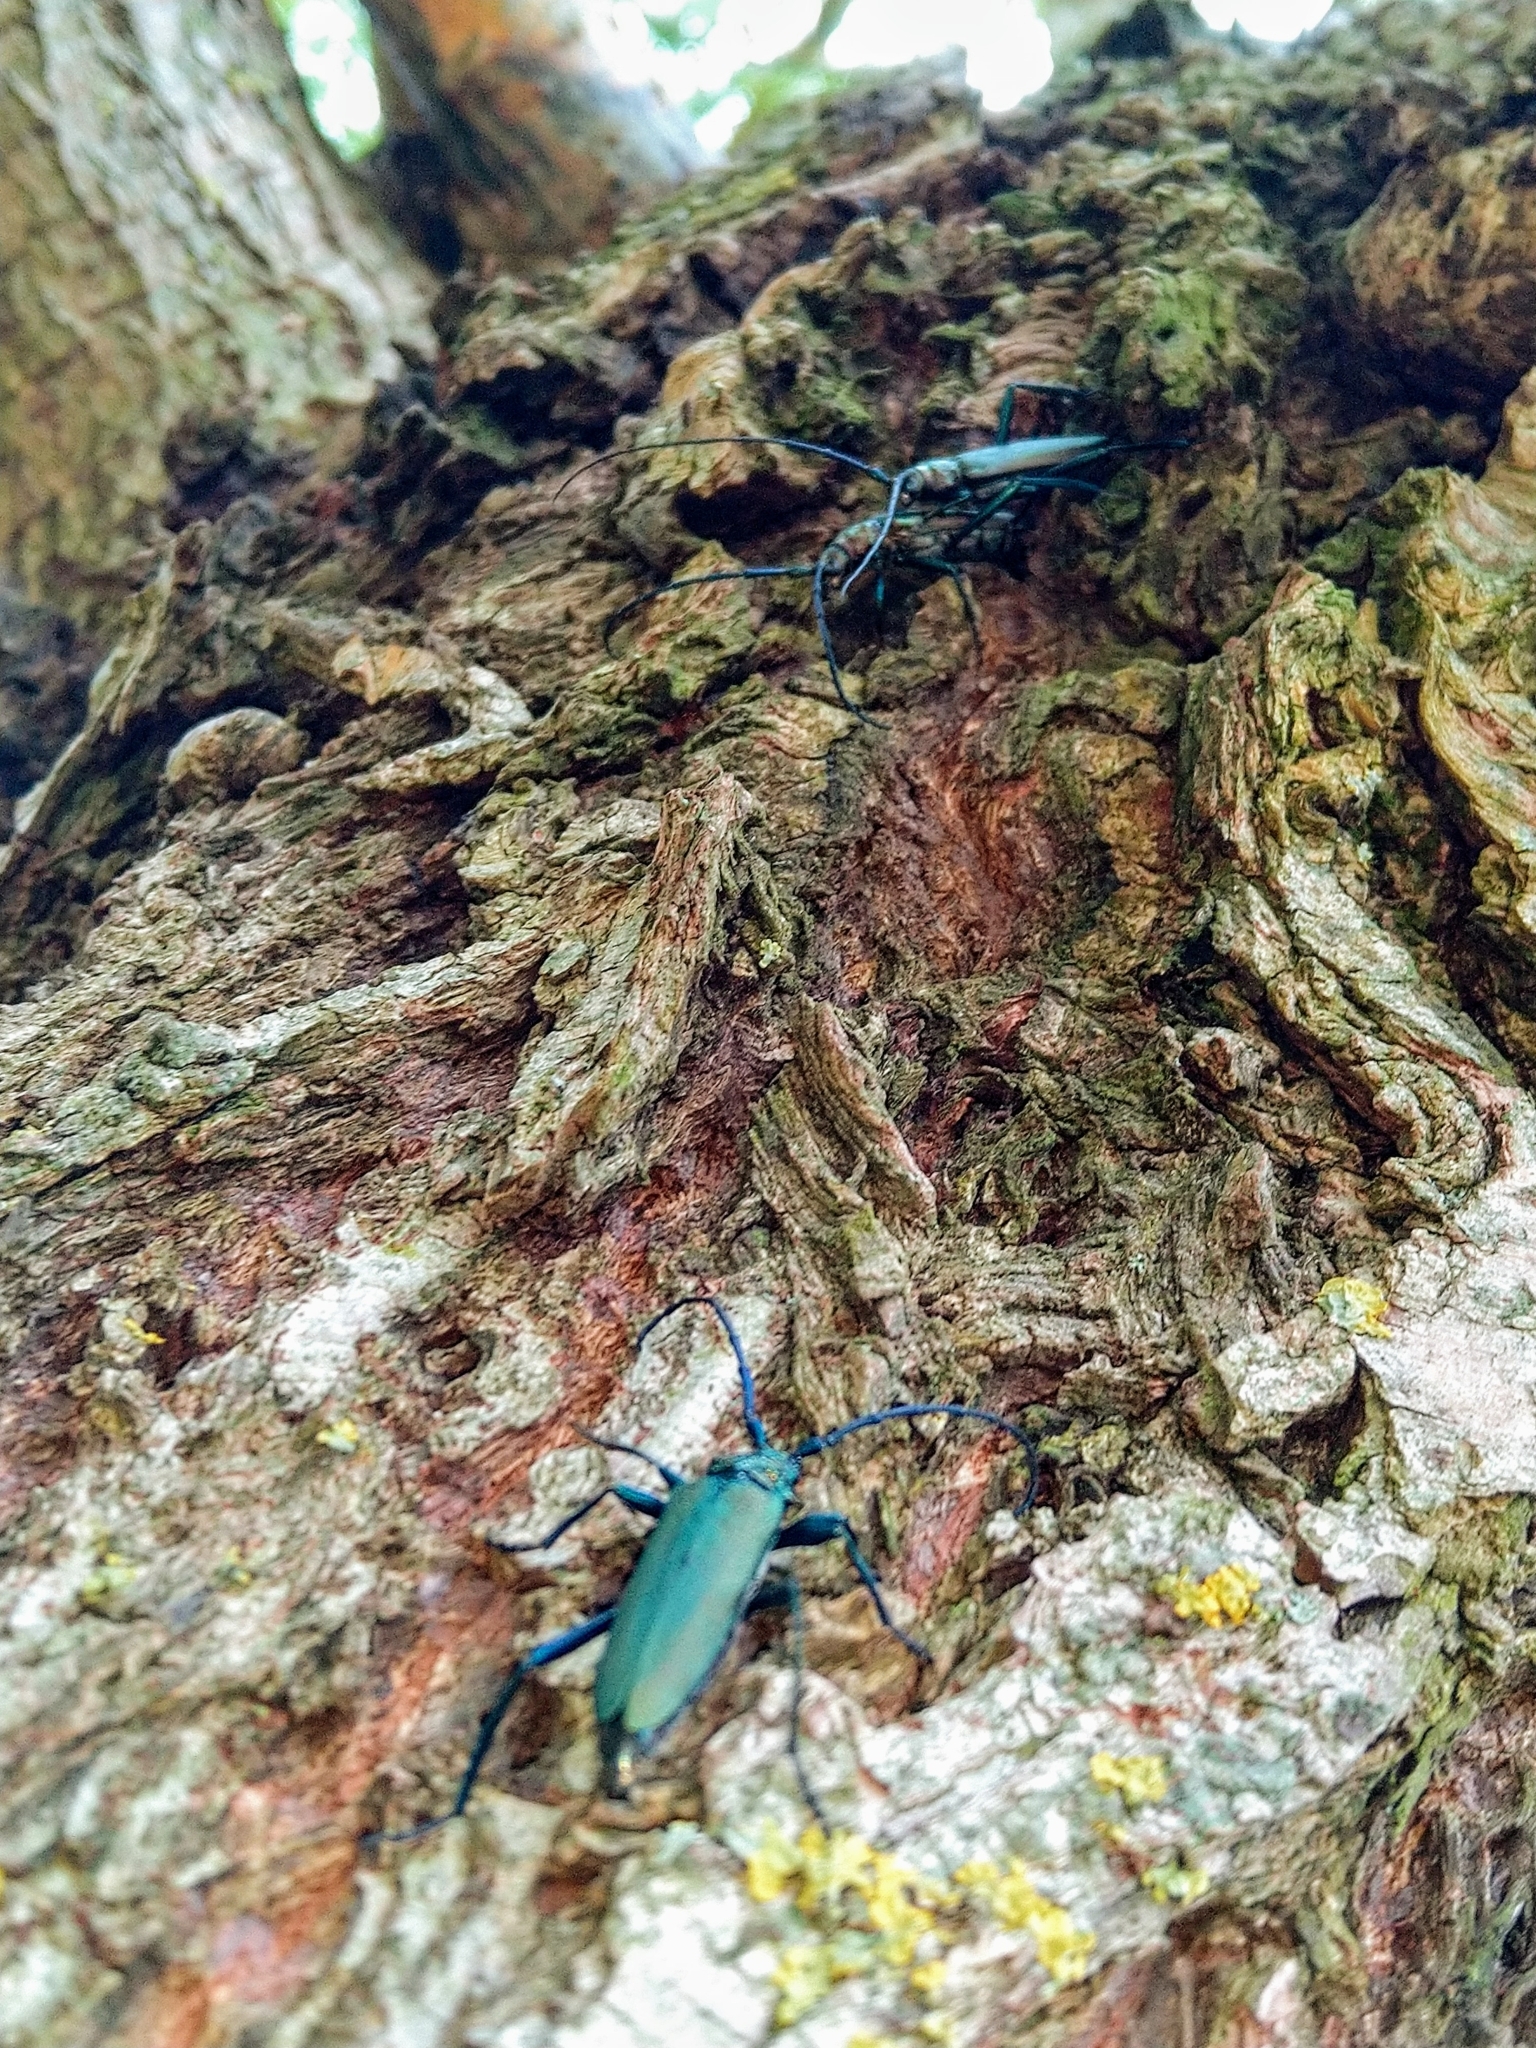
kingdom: Animalia
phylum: Arthropoda
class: Insecta
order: Coleoptera
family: Cerambycidae
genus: Aromia
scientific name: Aromia moschata
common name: Musk beetle
